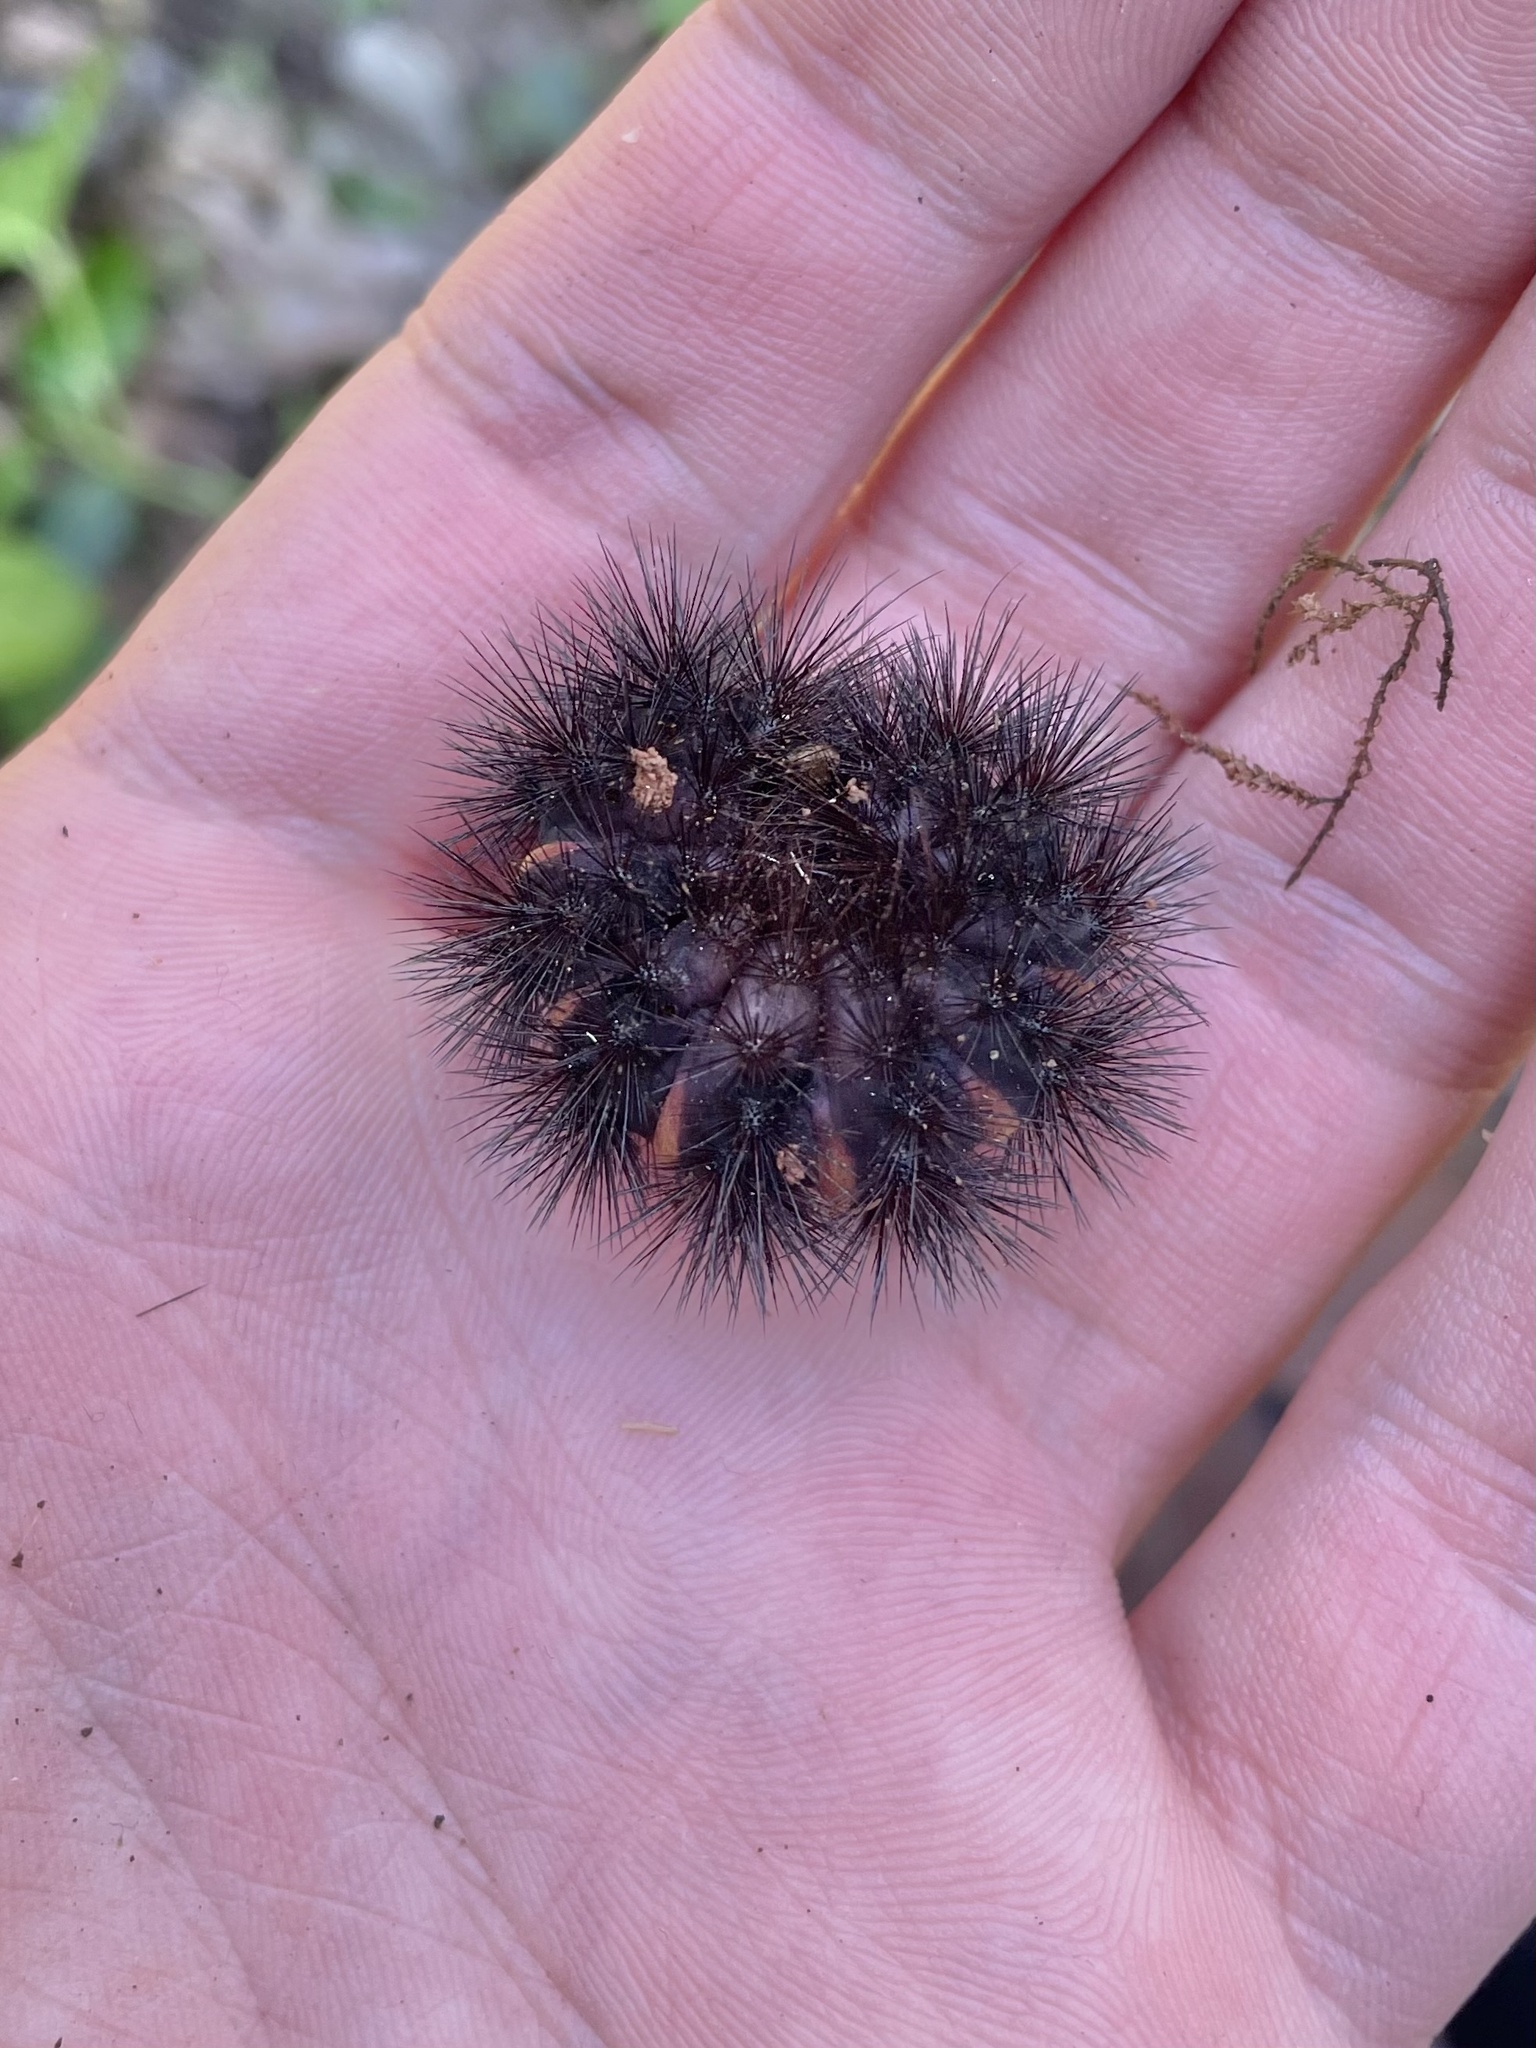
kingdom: Animalia
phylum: Arthropoda
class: Insecta
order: Lepidoptera
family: Erebidae
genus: Hypercompe
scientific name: Hypercompe scribonia
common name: Giant leopard moth
